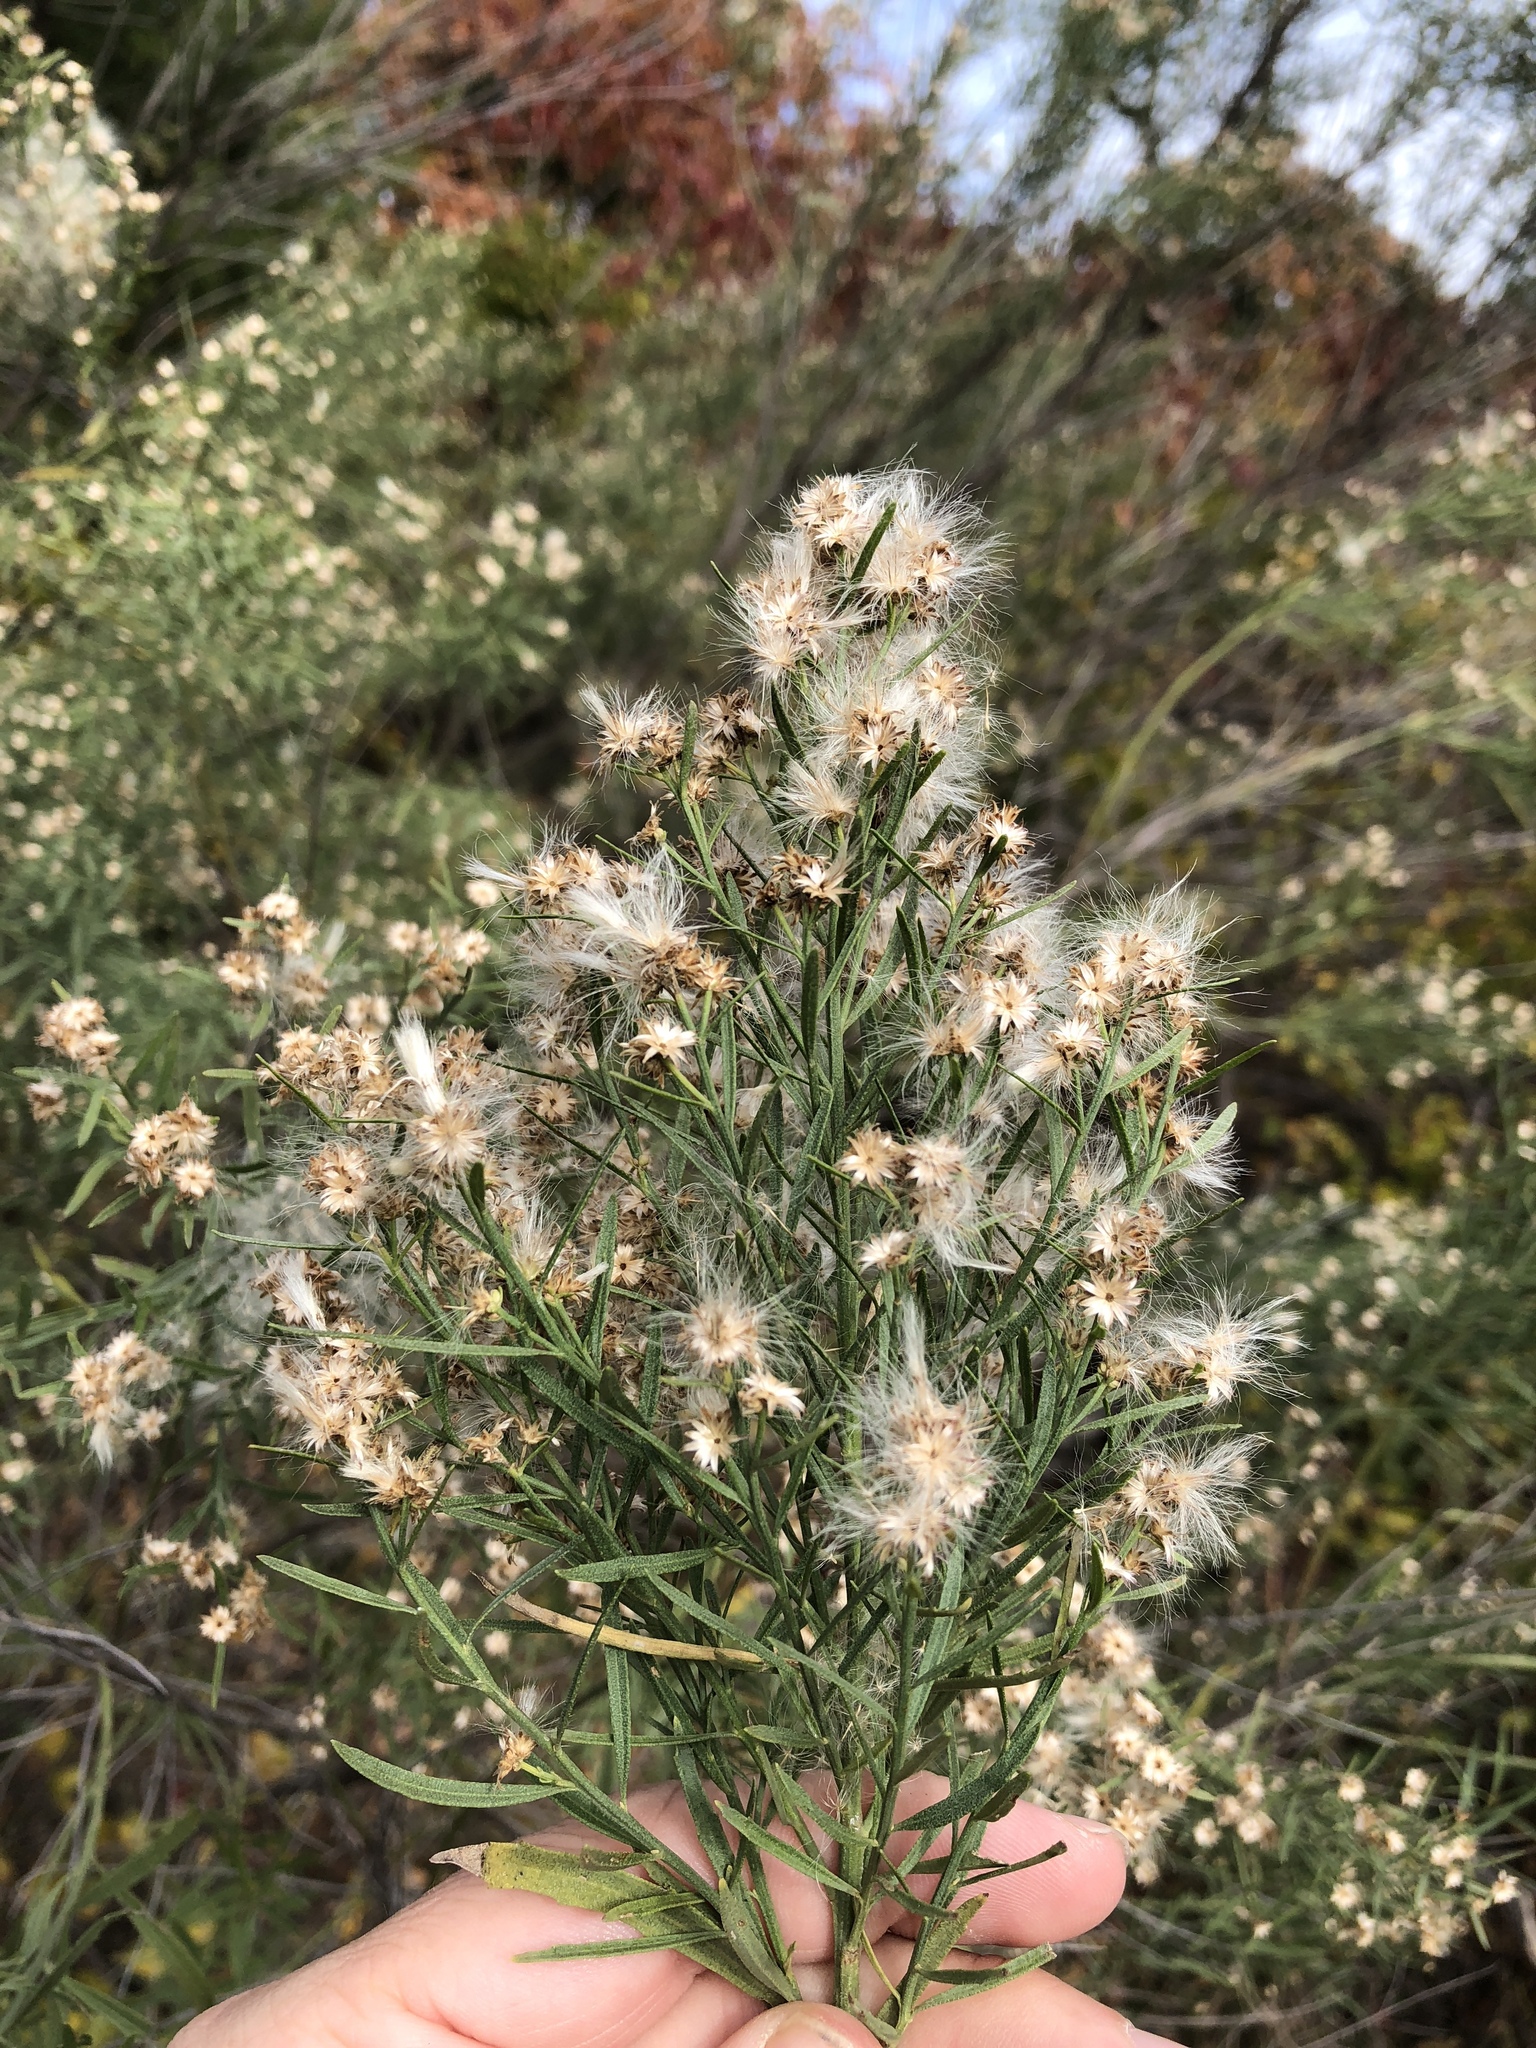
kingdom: Plantae
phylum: Tracheophyta
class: Magnoliopsida
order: Asterales
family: Asteraceae
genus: Baccharis
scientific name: Baccharis neglecta
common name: Roosevelt-weed
